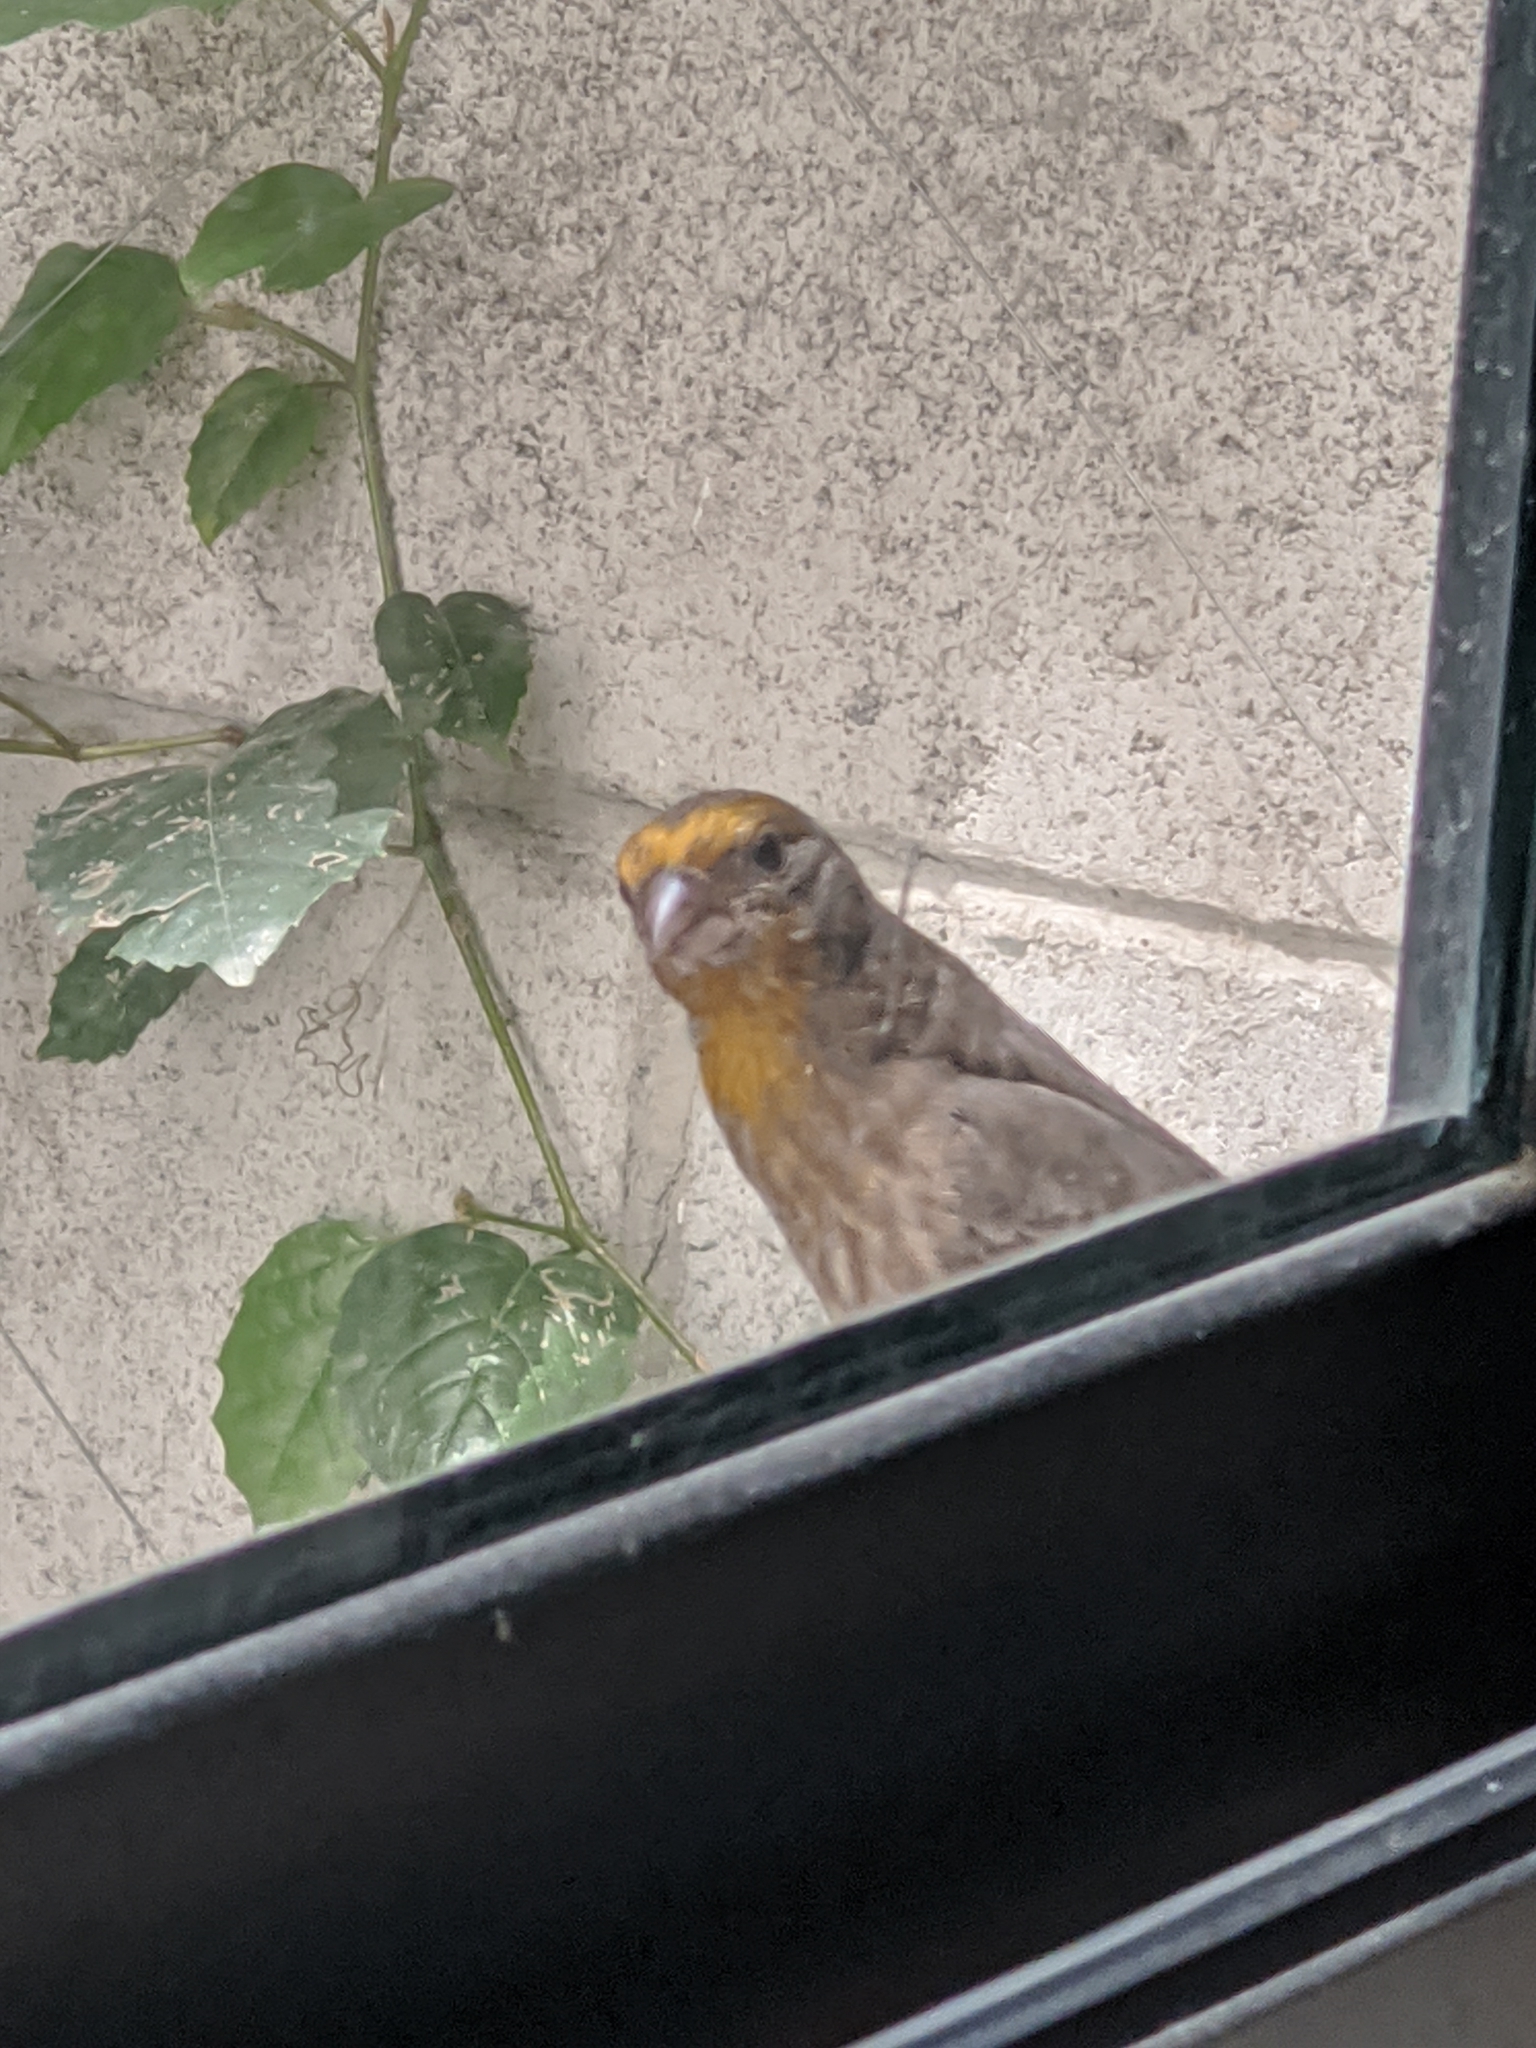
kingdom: Animalia
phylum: Chordata
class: Aves
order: Passeriformes
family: Fringillidae
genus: Haemorhous
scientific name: Haemorhous mexicanus
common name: House finch
